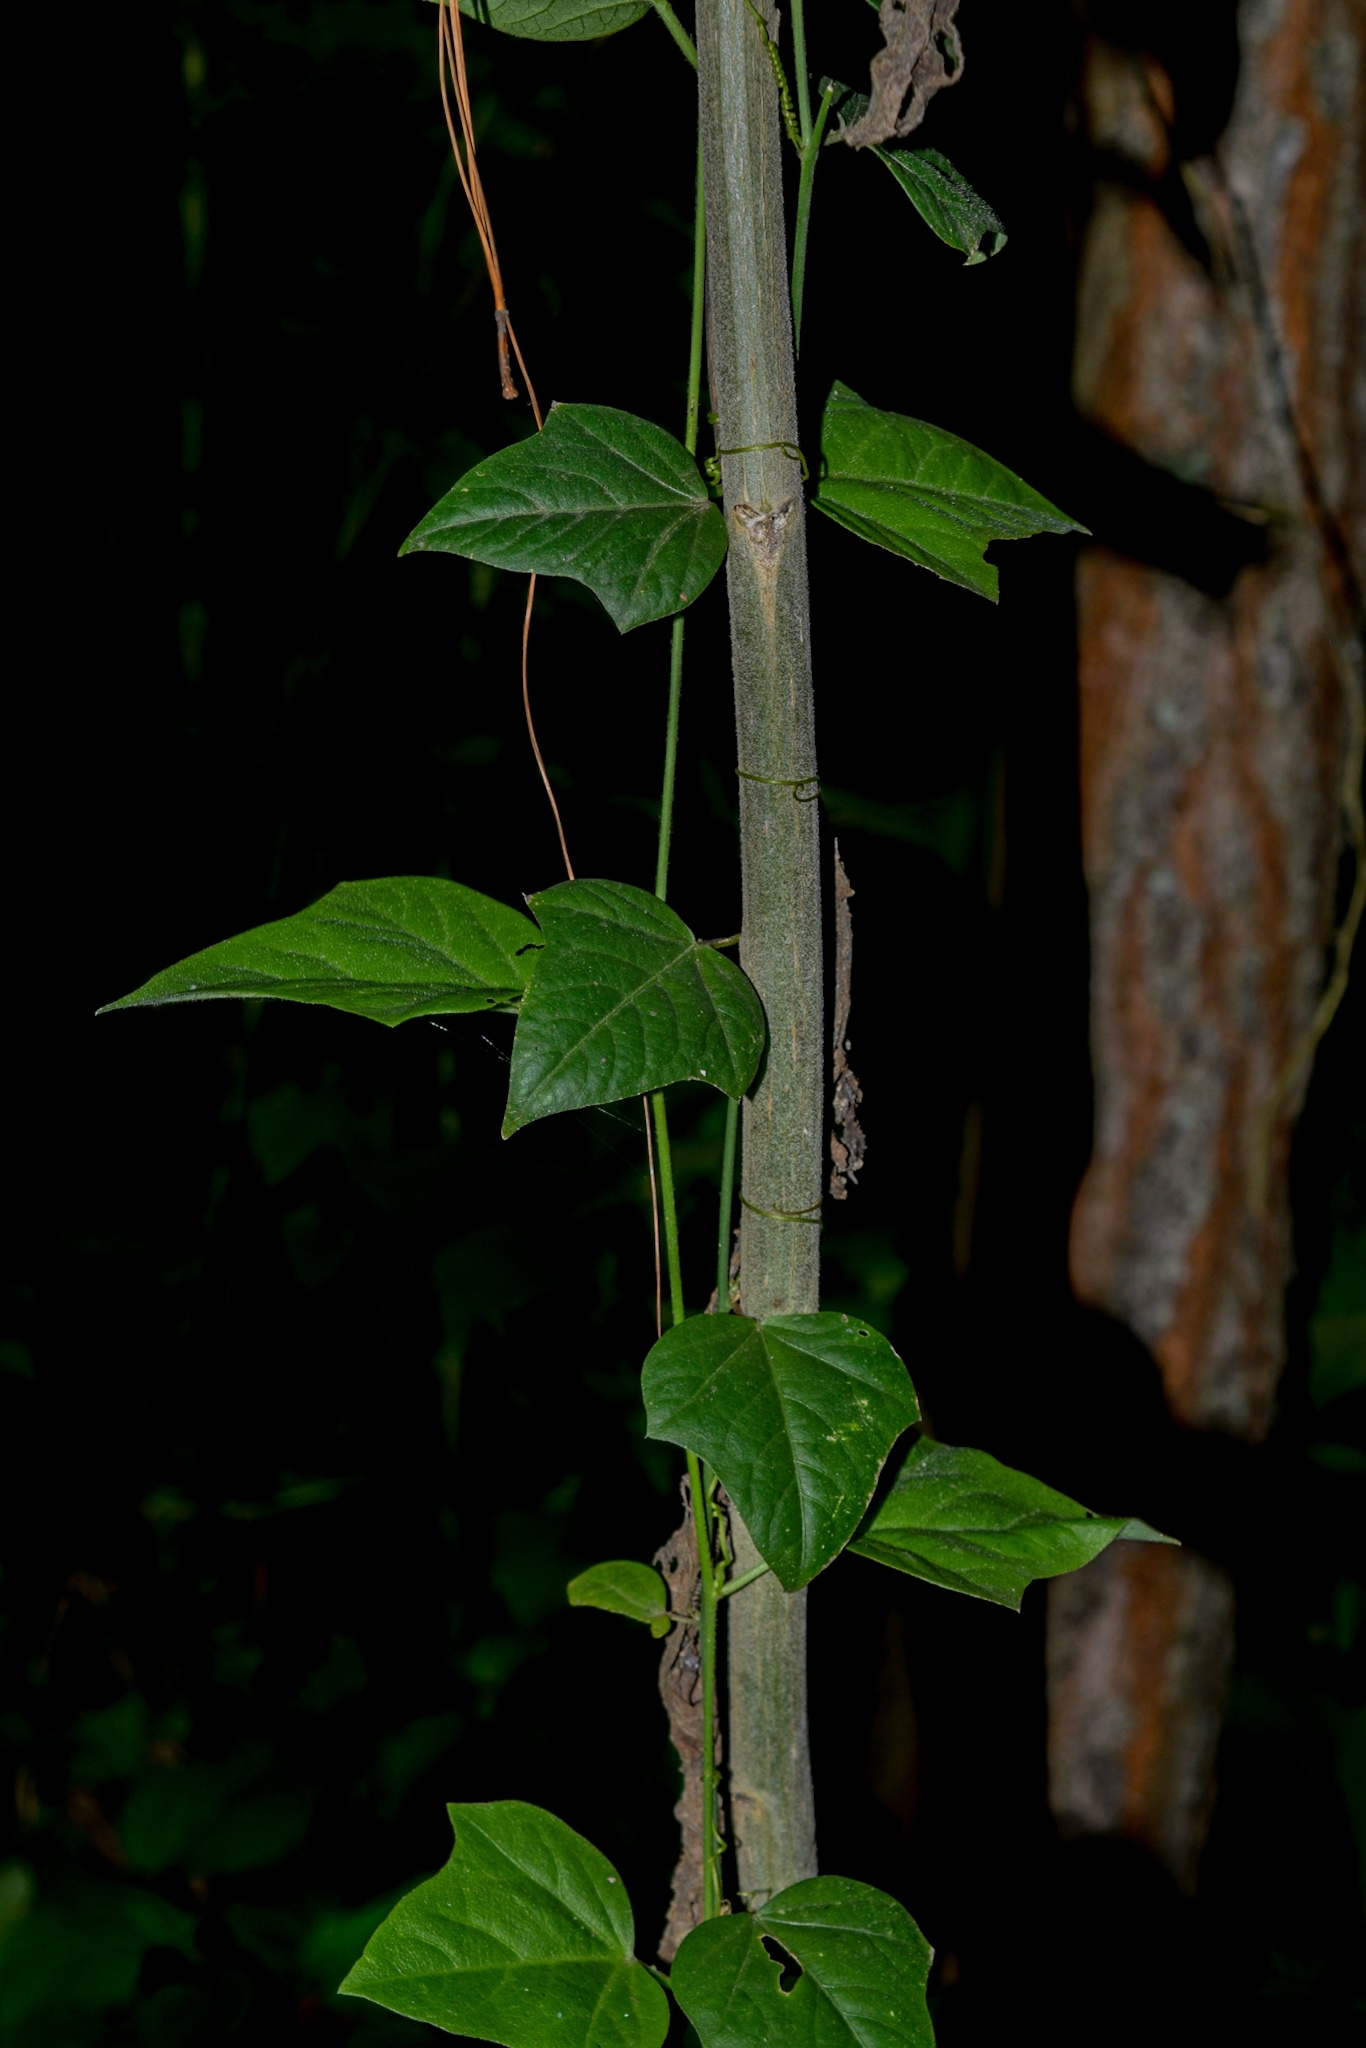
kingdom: Plantae
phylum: Tracheophyta
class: Magnoliopsida
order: Malpighiales
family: Passifloraceae
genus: Passiflora
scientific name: Passiflora suberosa
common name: Wild passionfruit
